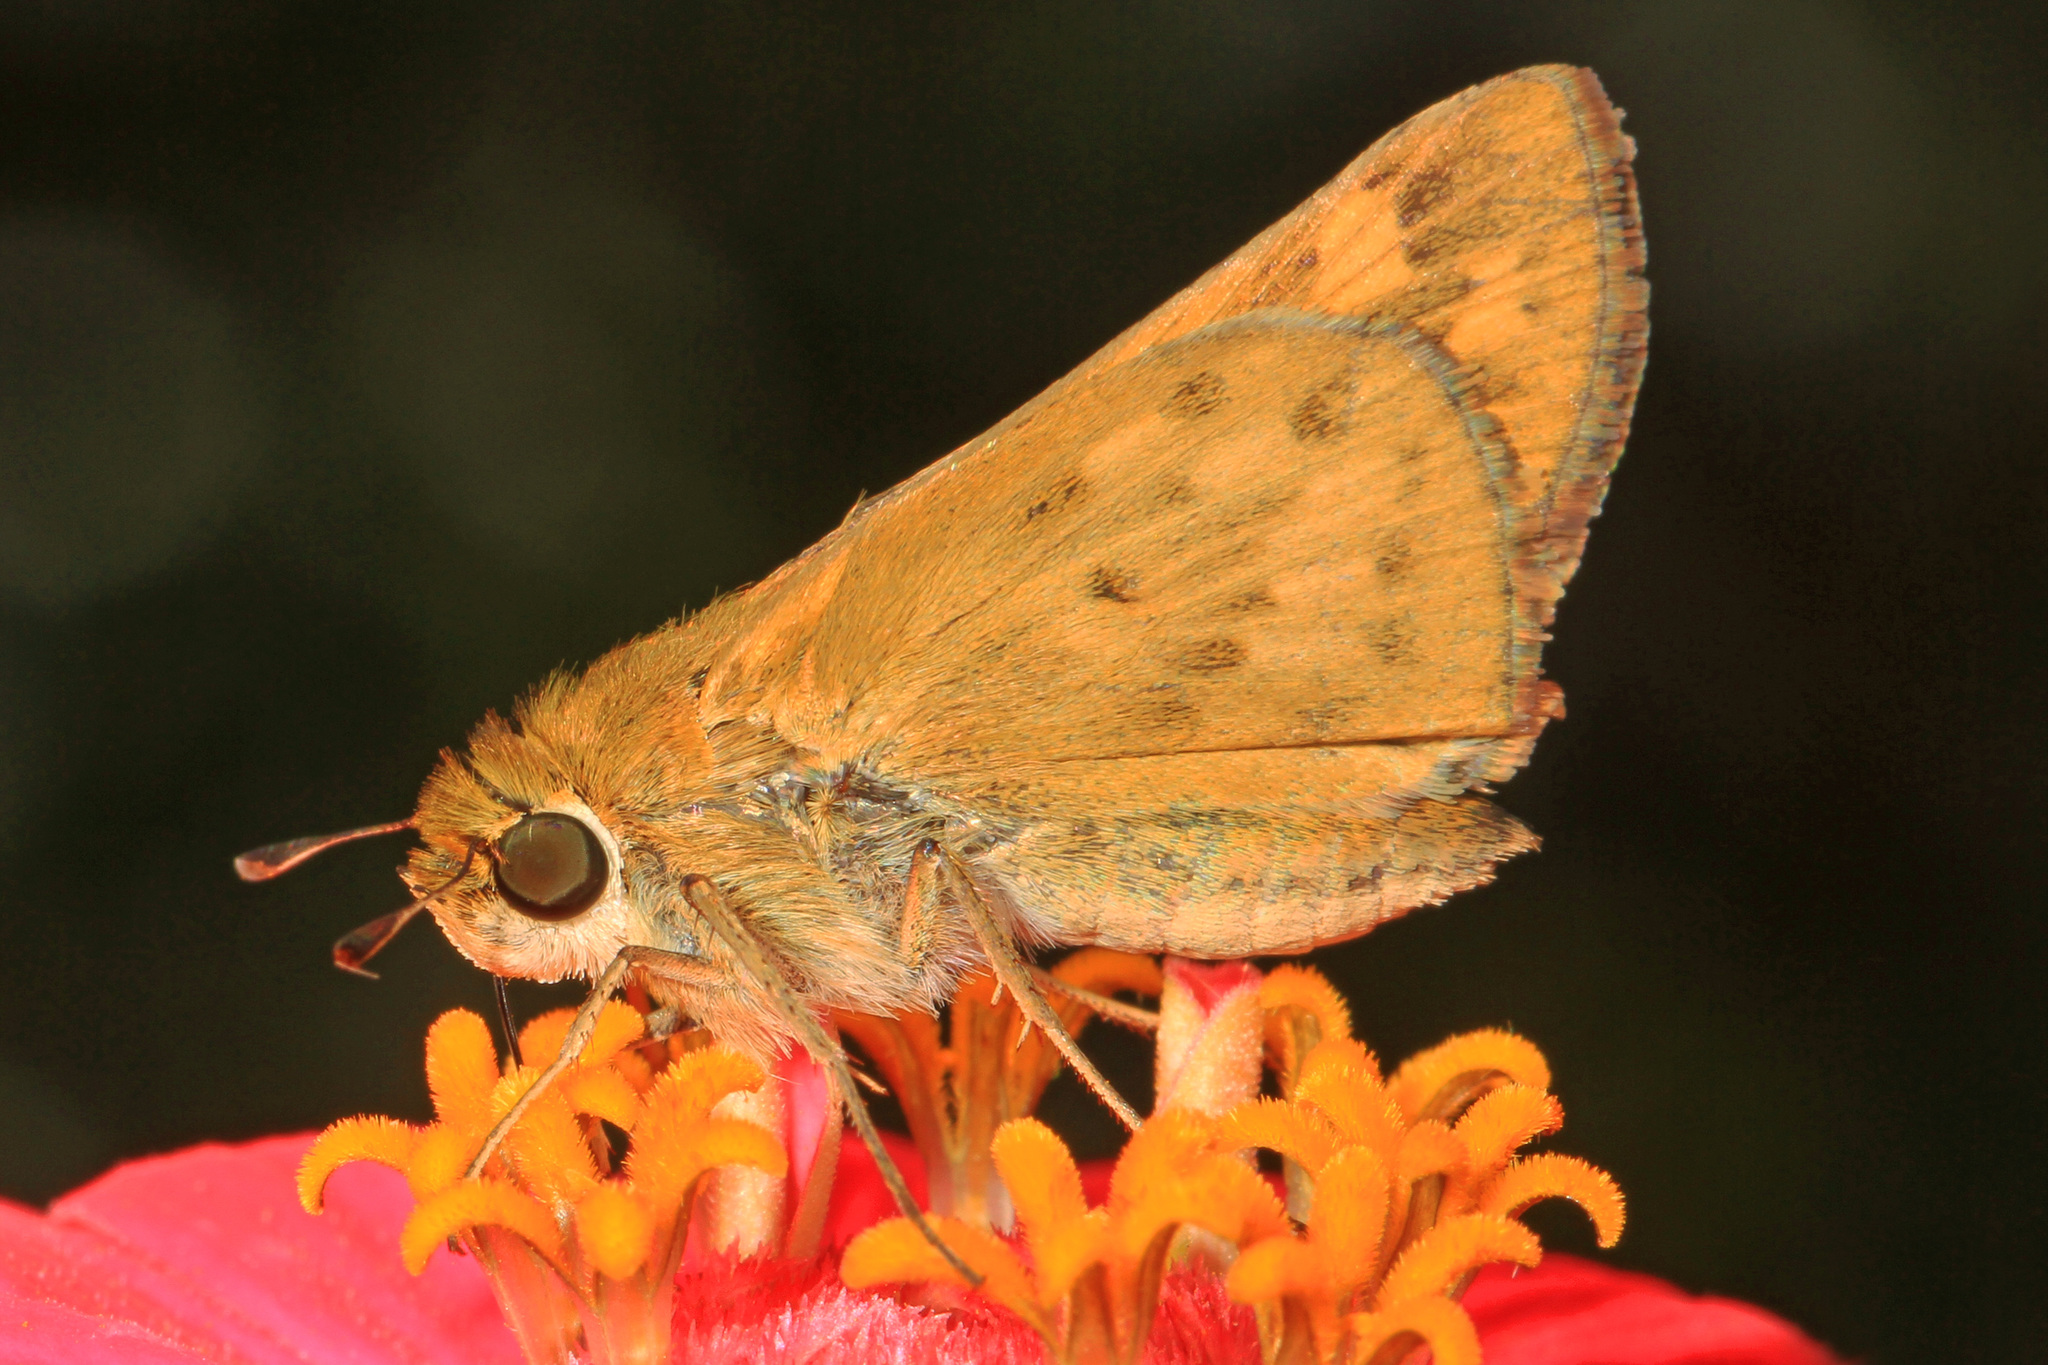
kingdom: Animalia
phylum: Arthropoda
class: Insecta
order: Lepidoptera
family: Hesperiidae
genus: Hylephila
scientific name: Hylephila phyleus
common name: Fiery skipper
